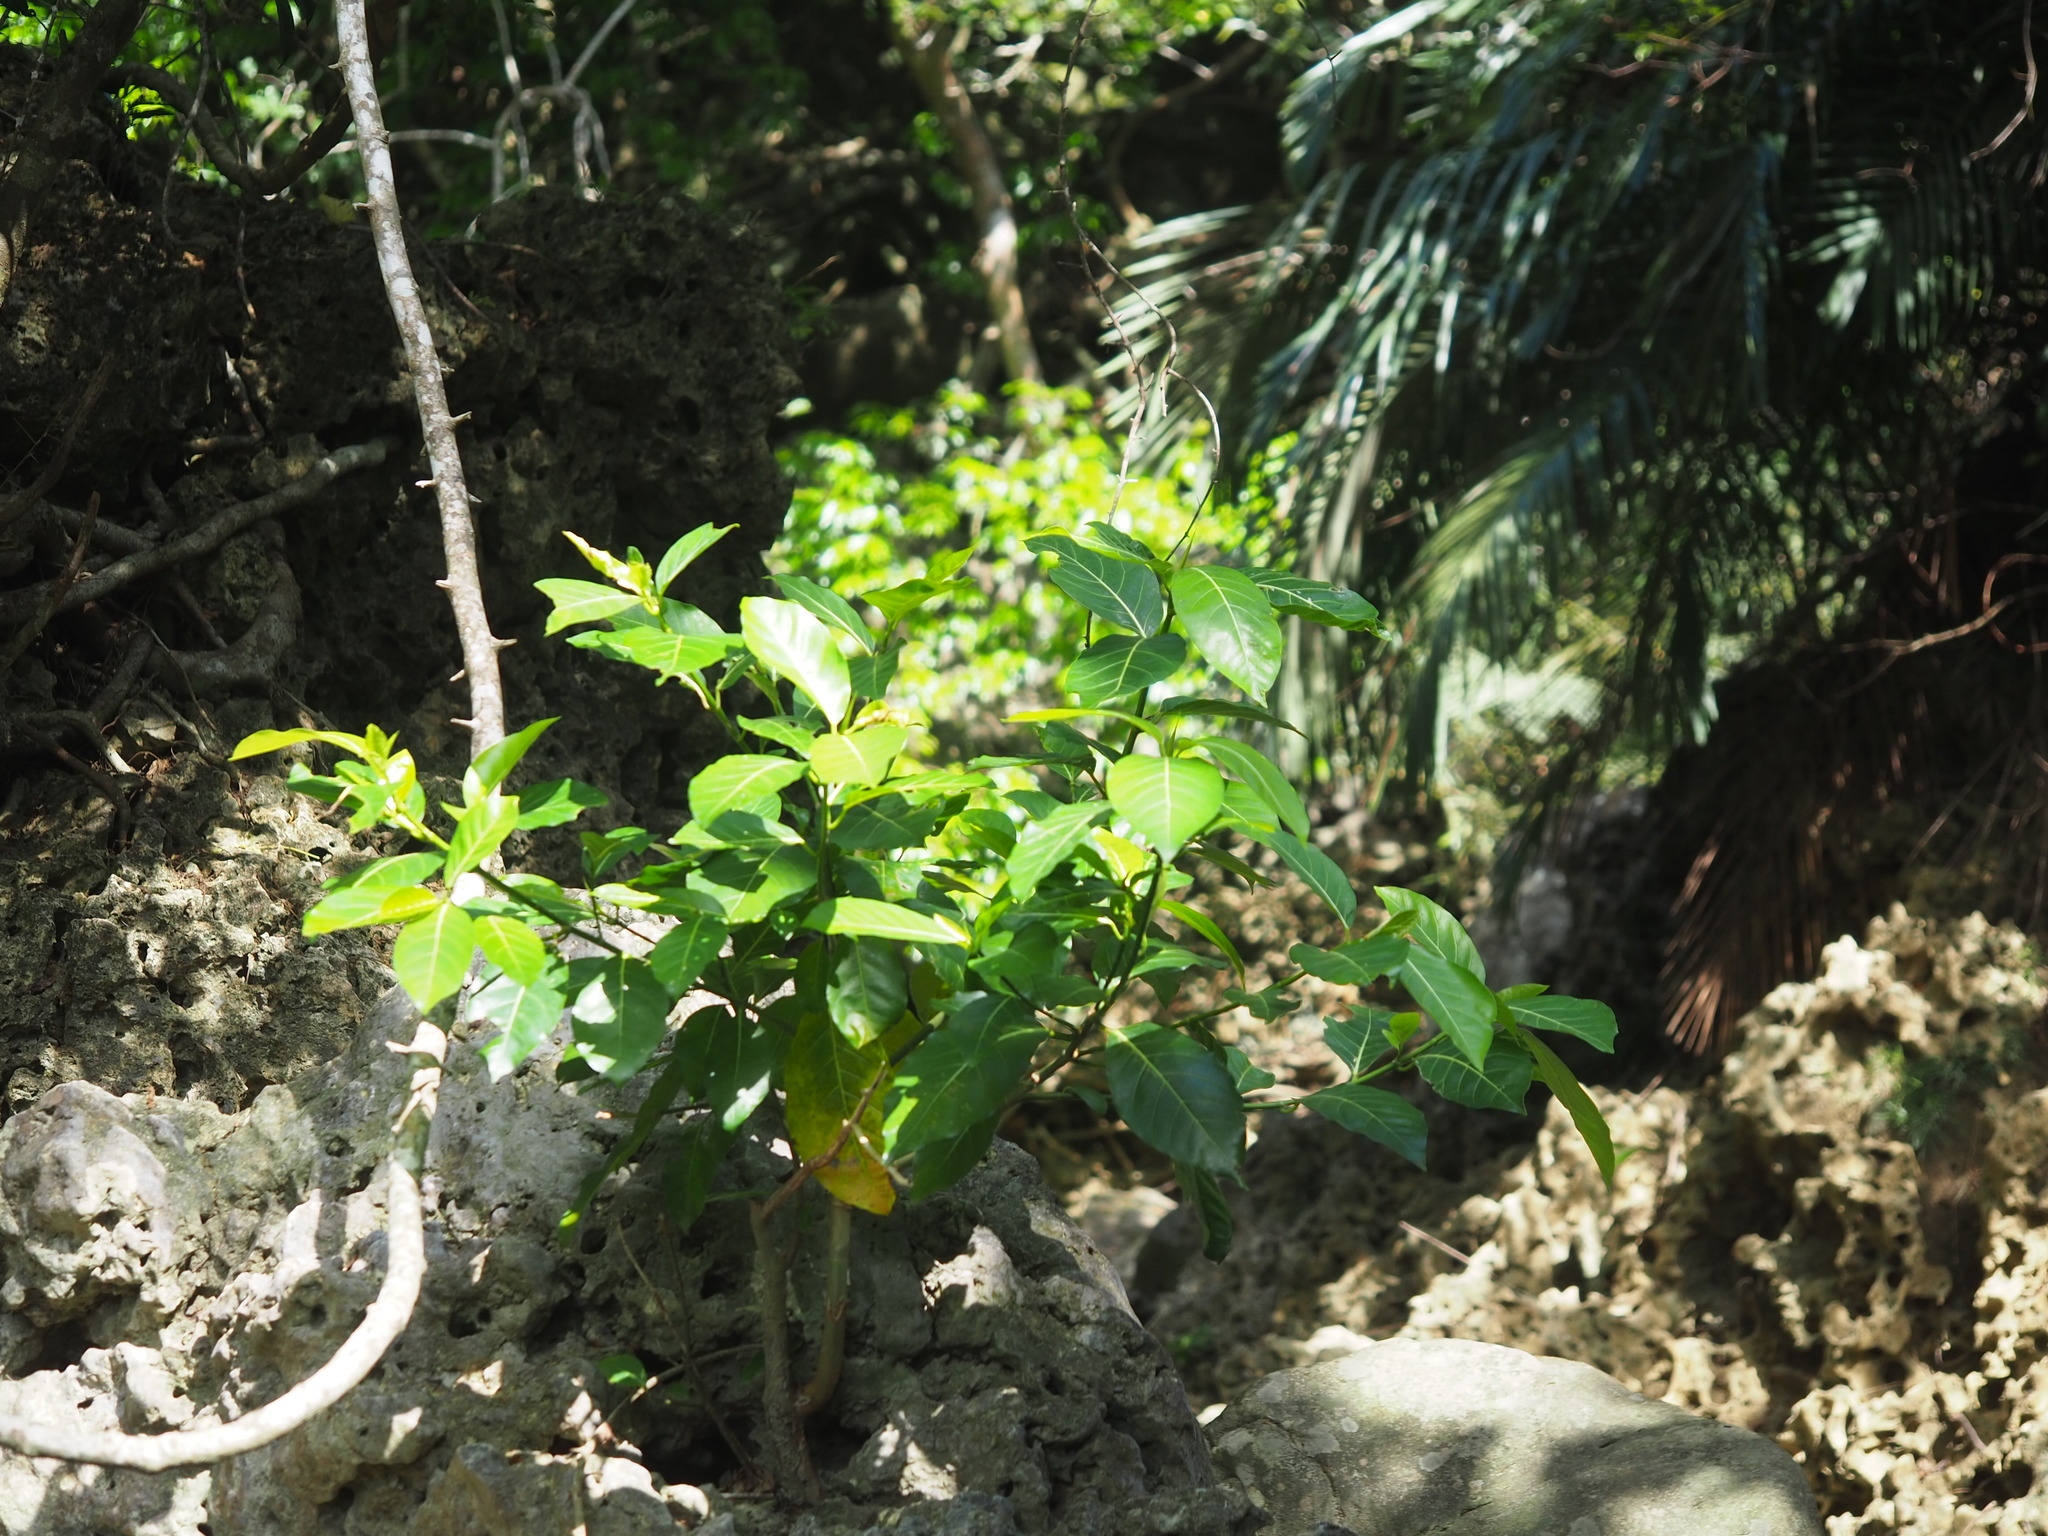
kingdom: Plantae
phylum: Tracheophyta
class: Magnoliopsida
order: Rosales
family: Moraceae
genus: Ficus
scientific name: Ficus septica
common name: Septic fig
